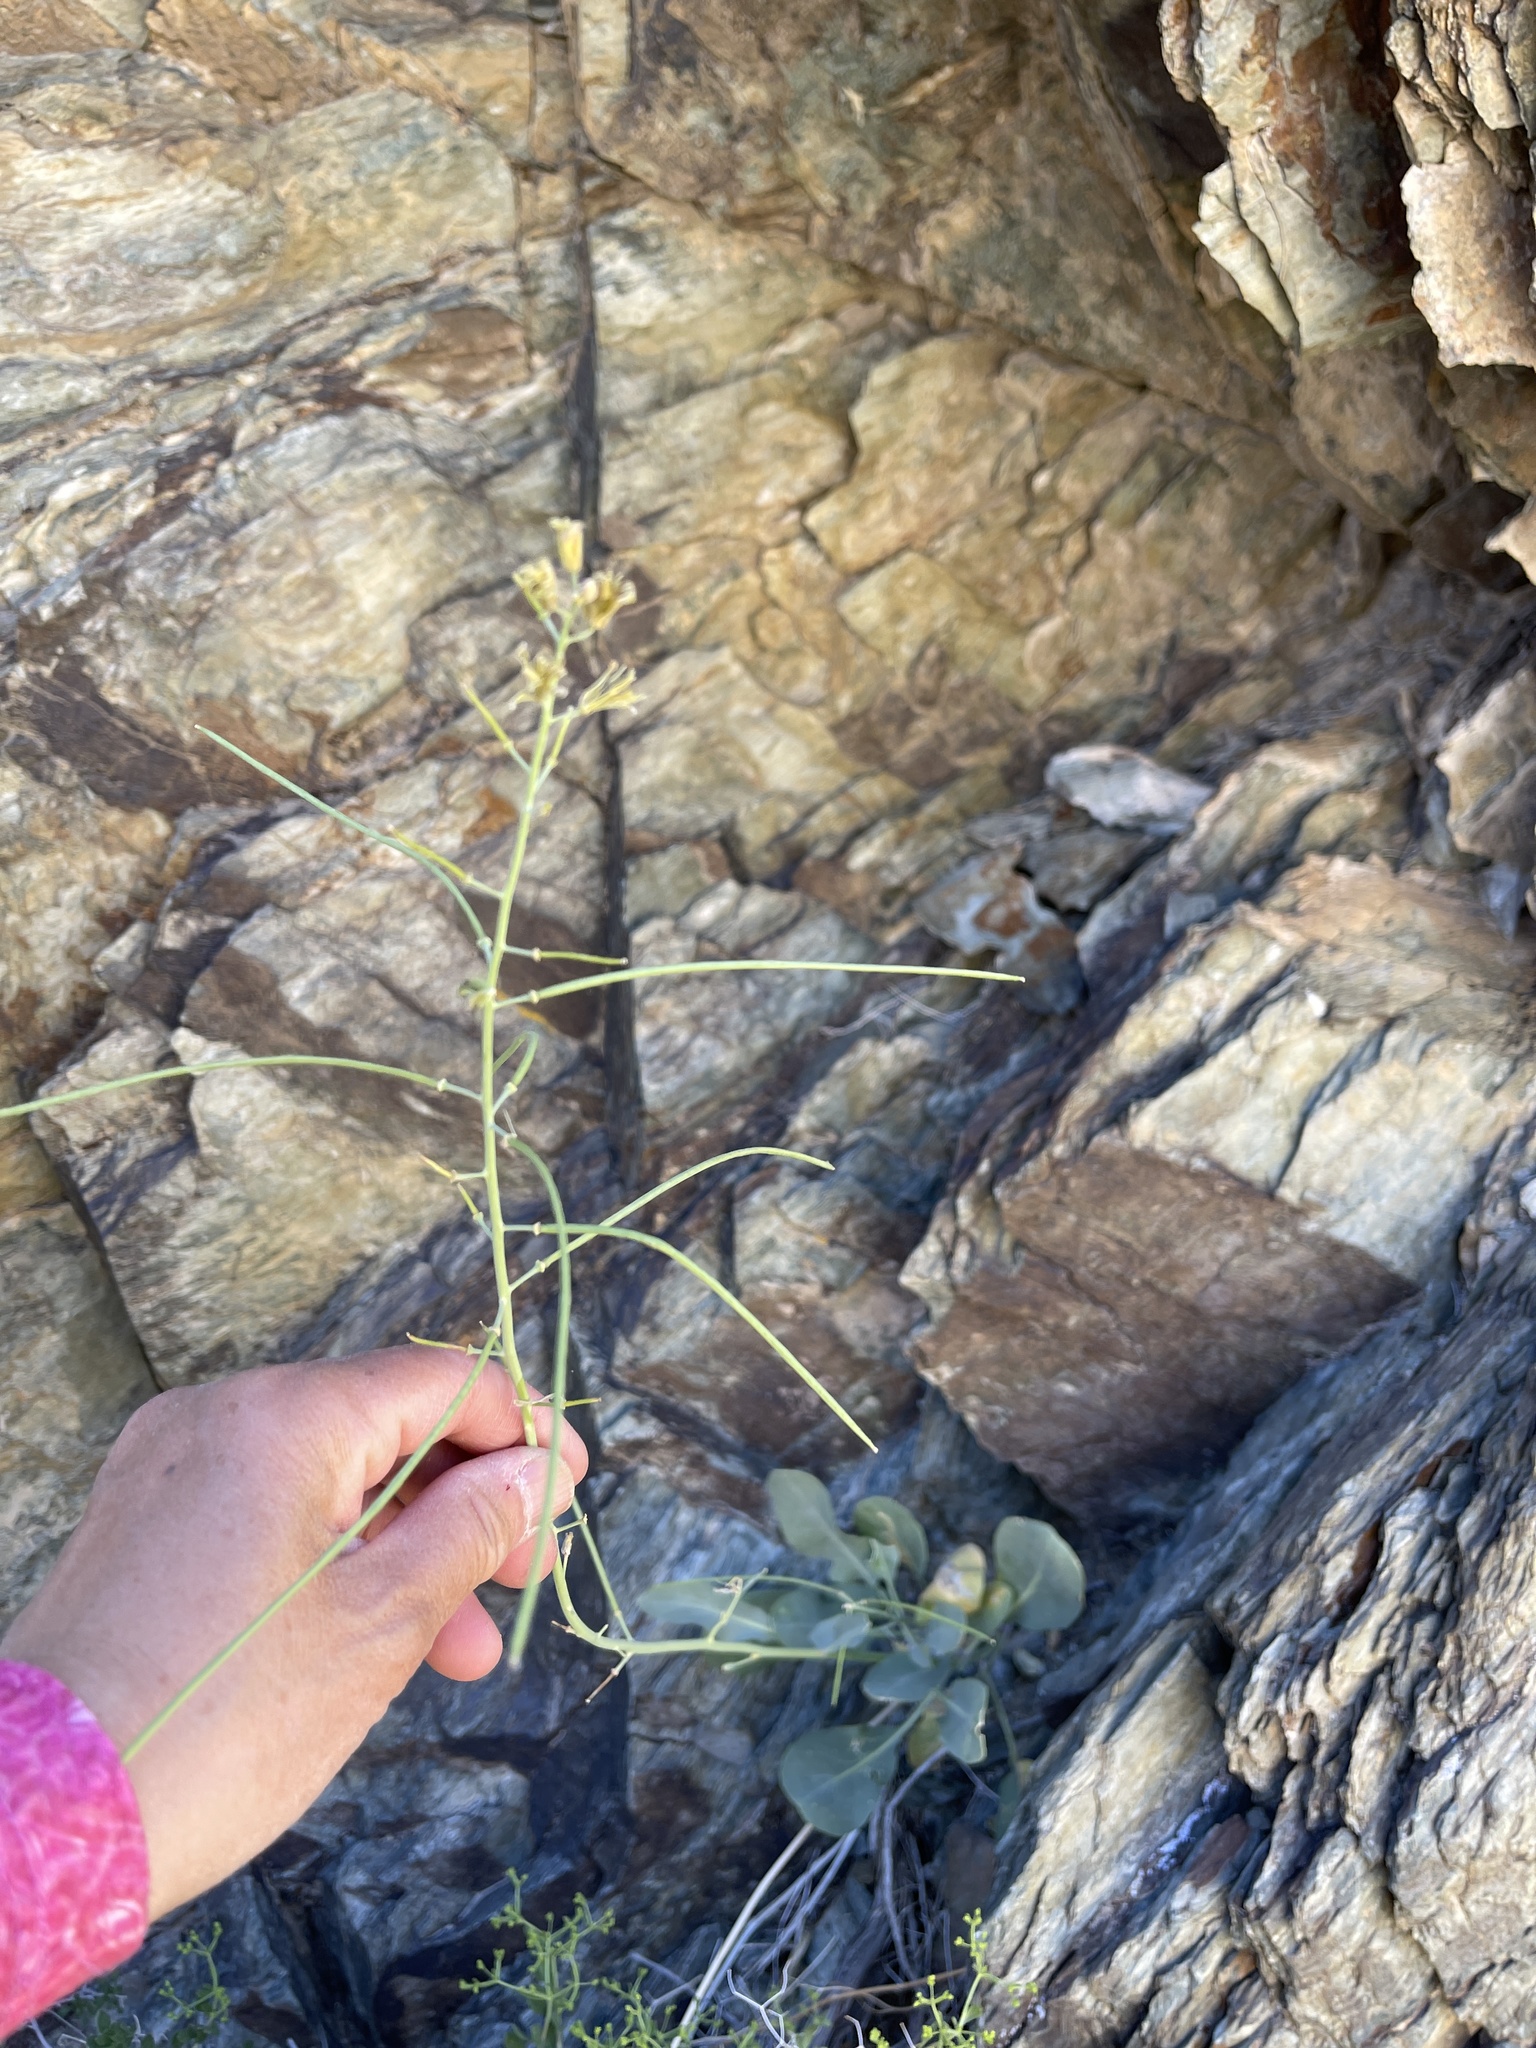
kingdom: Plantae
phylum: Tracheophyta
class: Magnoliopsida
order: Brassicales
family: Brassicaceae
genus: Streptanthus
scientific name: Streptanthus glaucus
